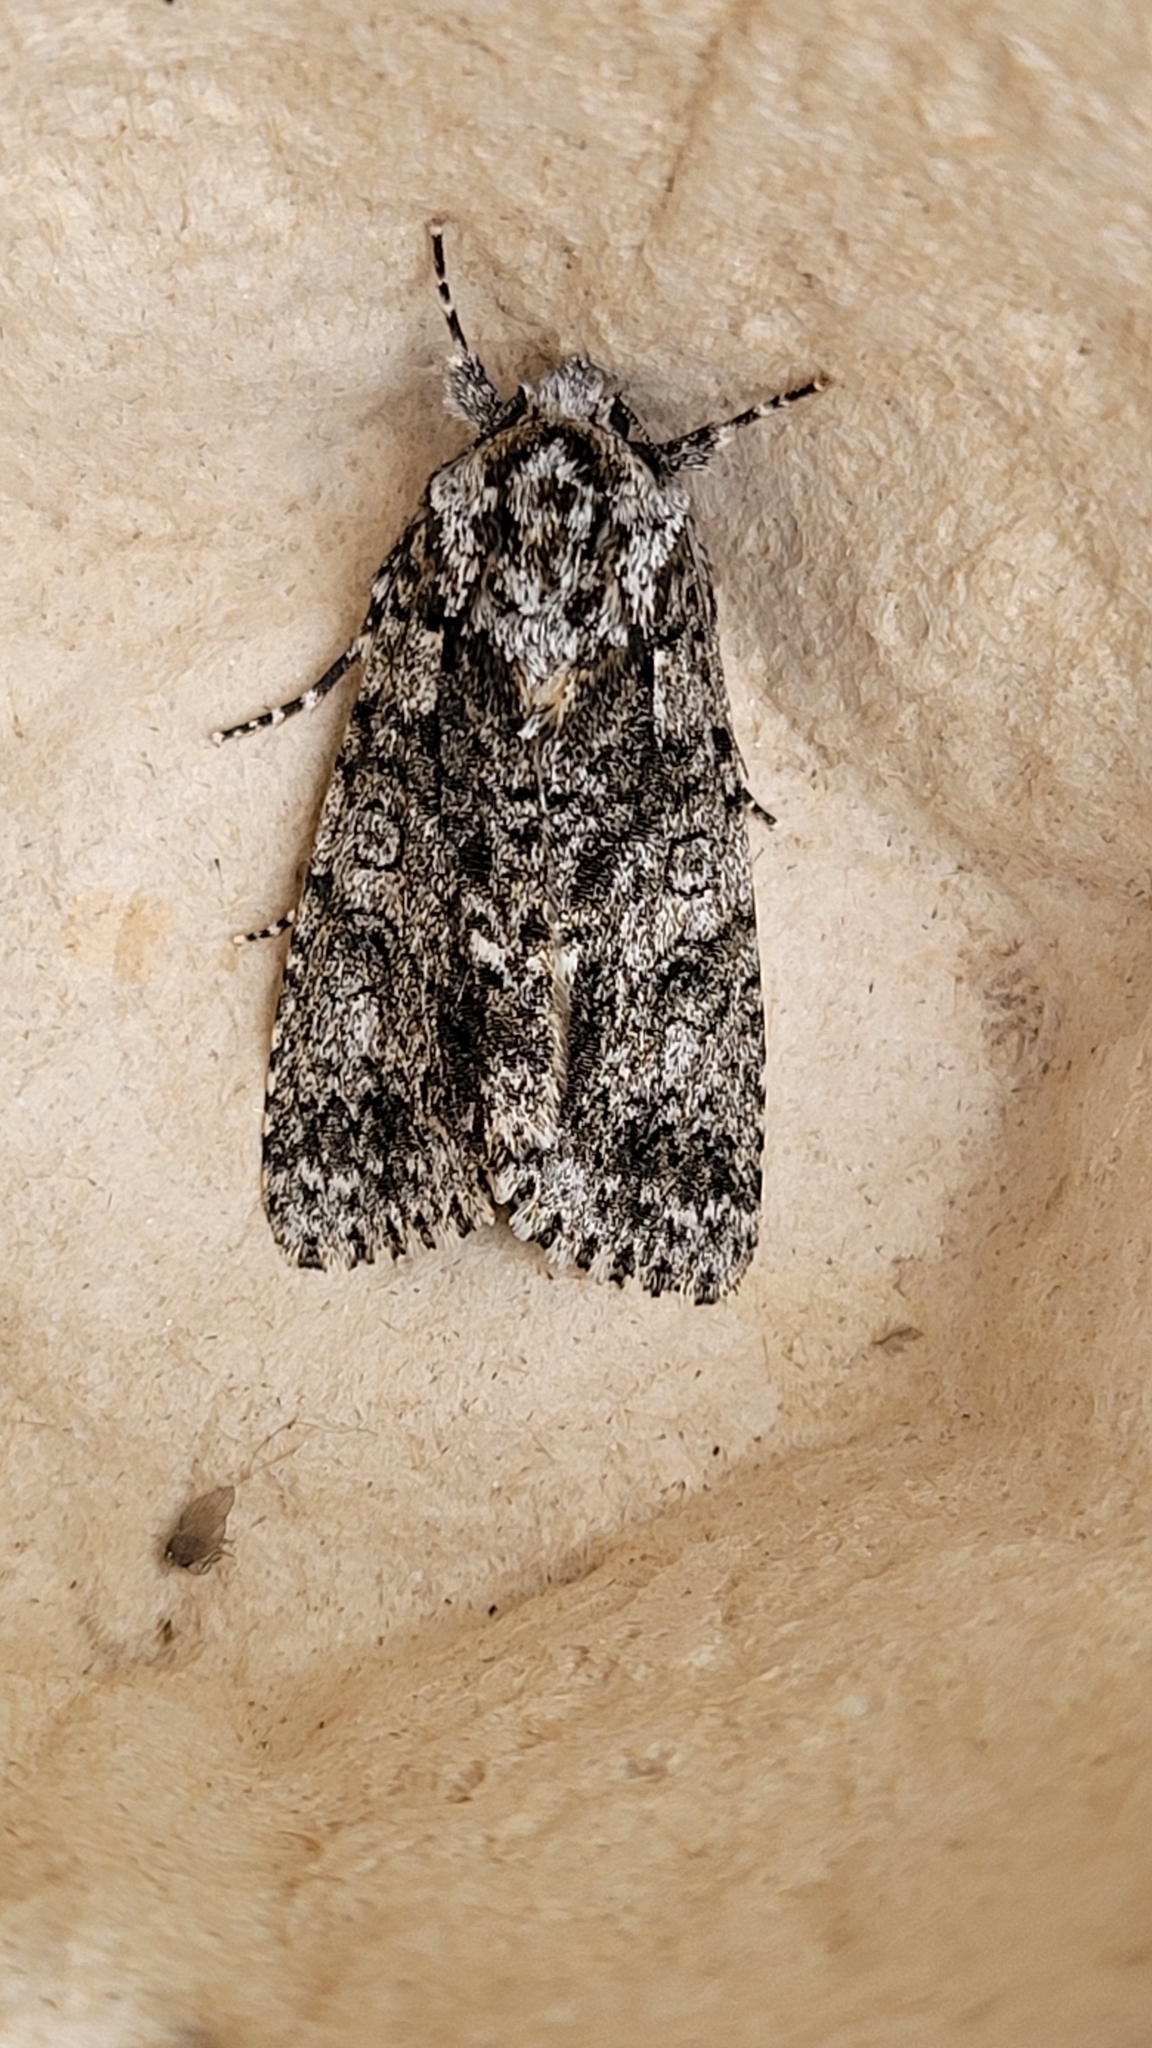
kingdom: Animalia
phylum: Arthropoda
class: Insecta
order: Lepidoptera
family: Noctuidae
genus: Acronicta
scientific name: Acronicta rumicis
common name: Knot grass
